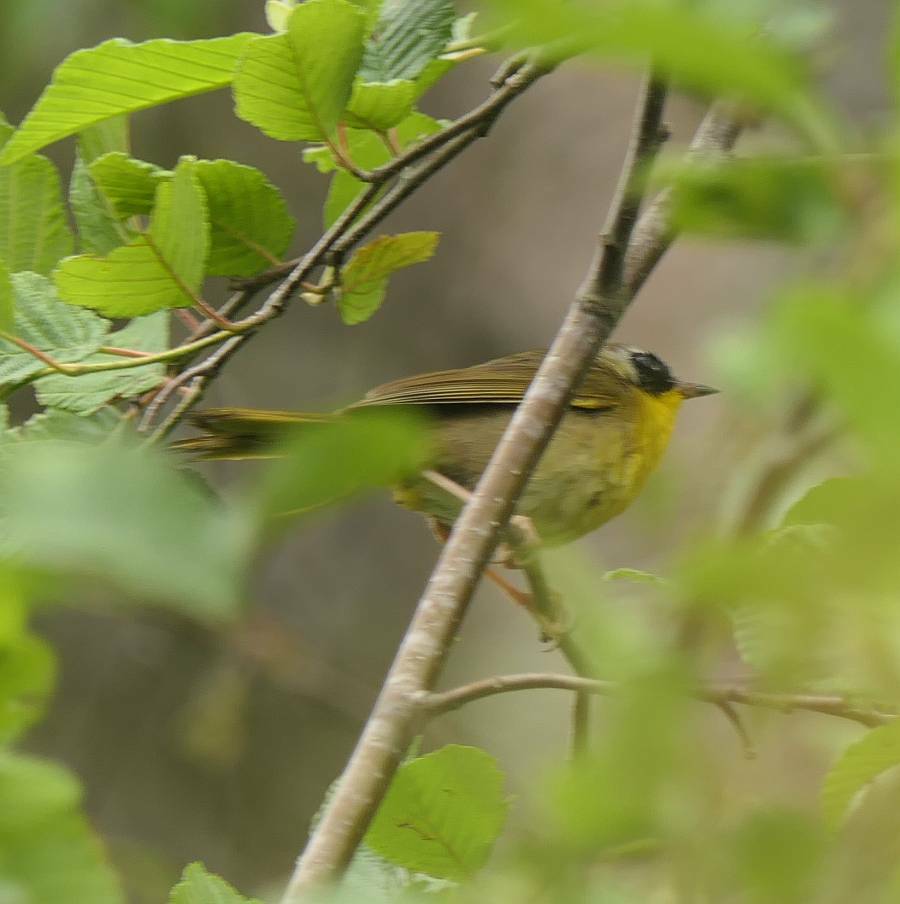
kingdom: Animalia
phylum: Chordata
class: Aves
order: Passeriformes
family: Parulidae
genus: Geothlypis
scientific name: Geothlypis trichas
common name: Common yellowthroat
